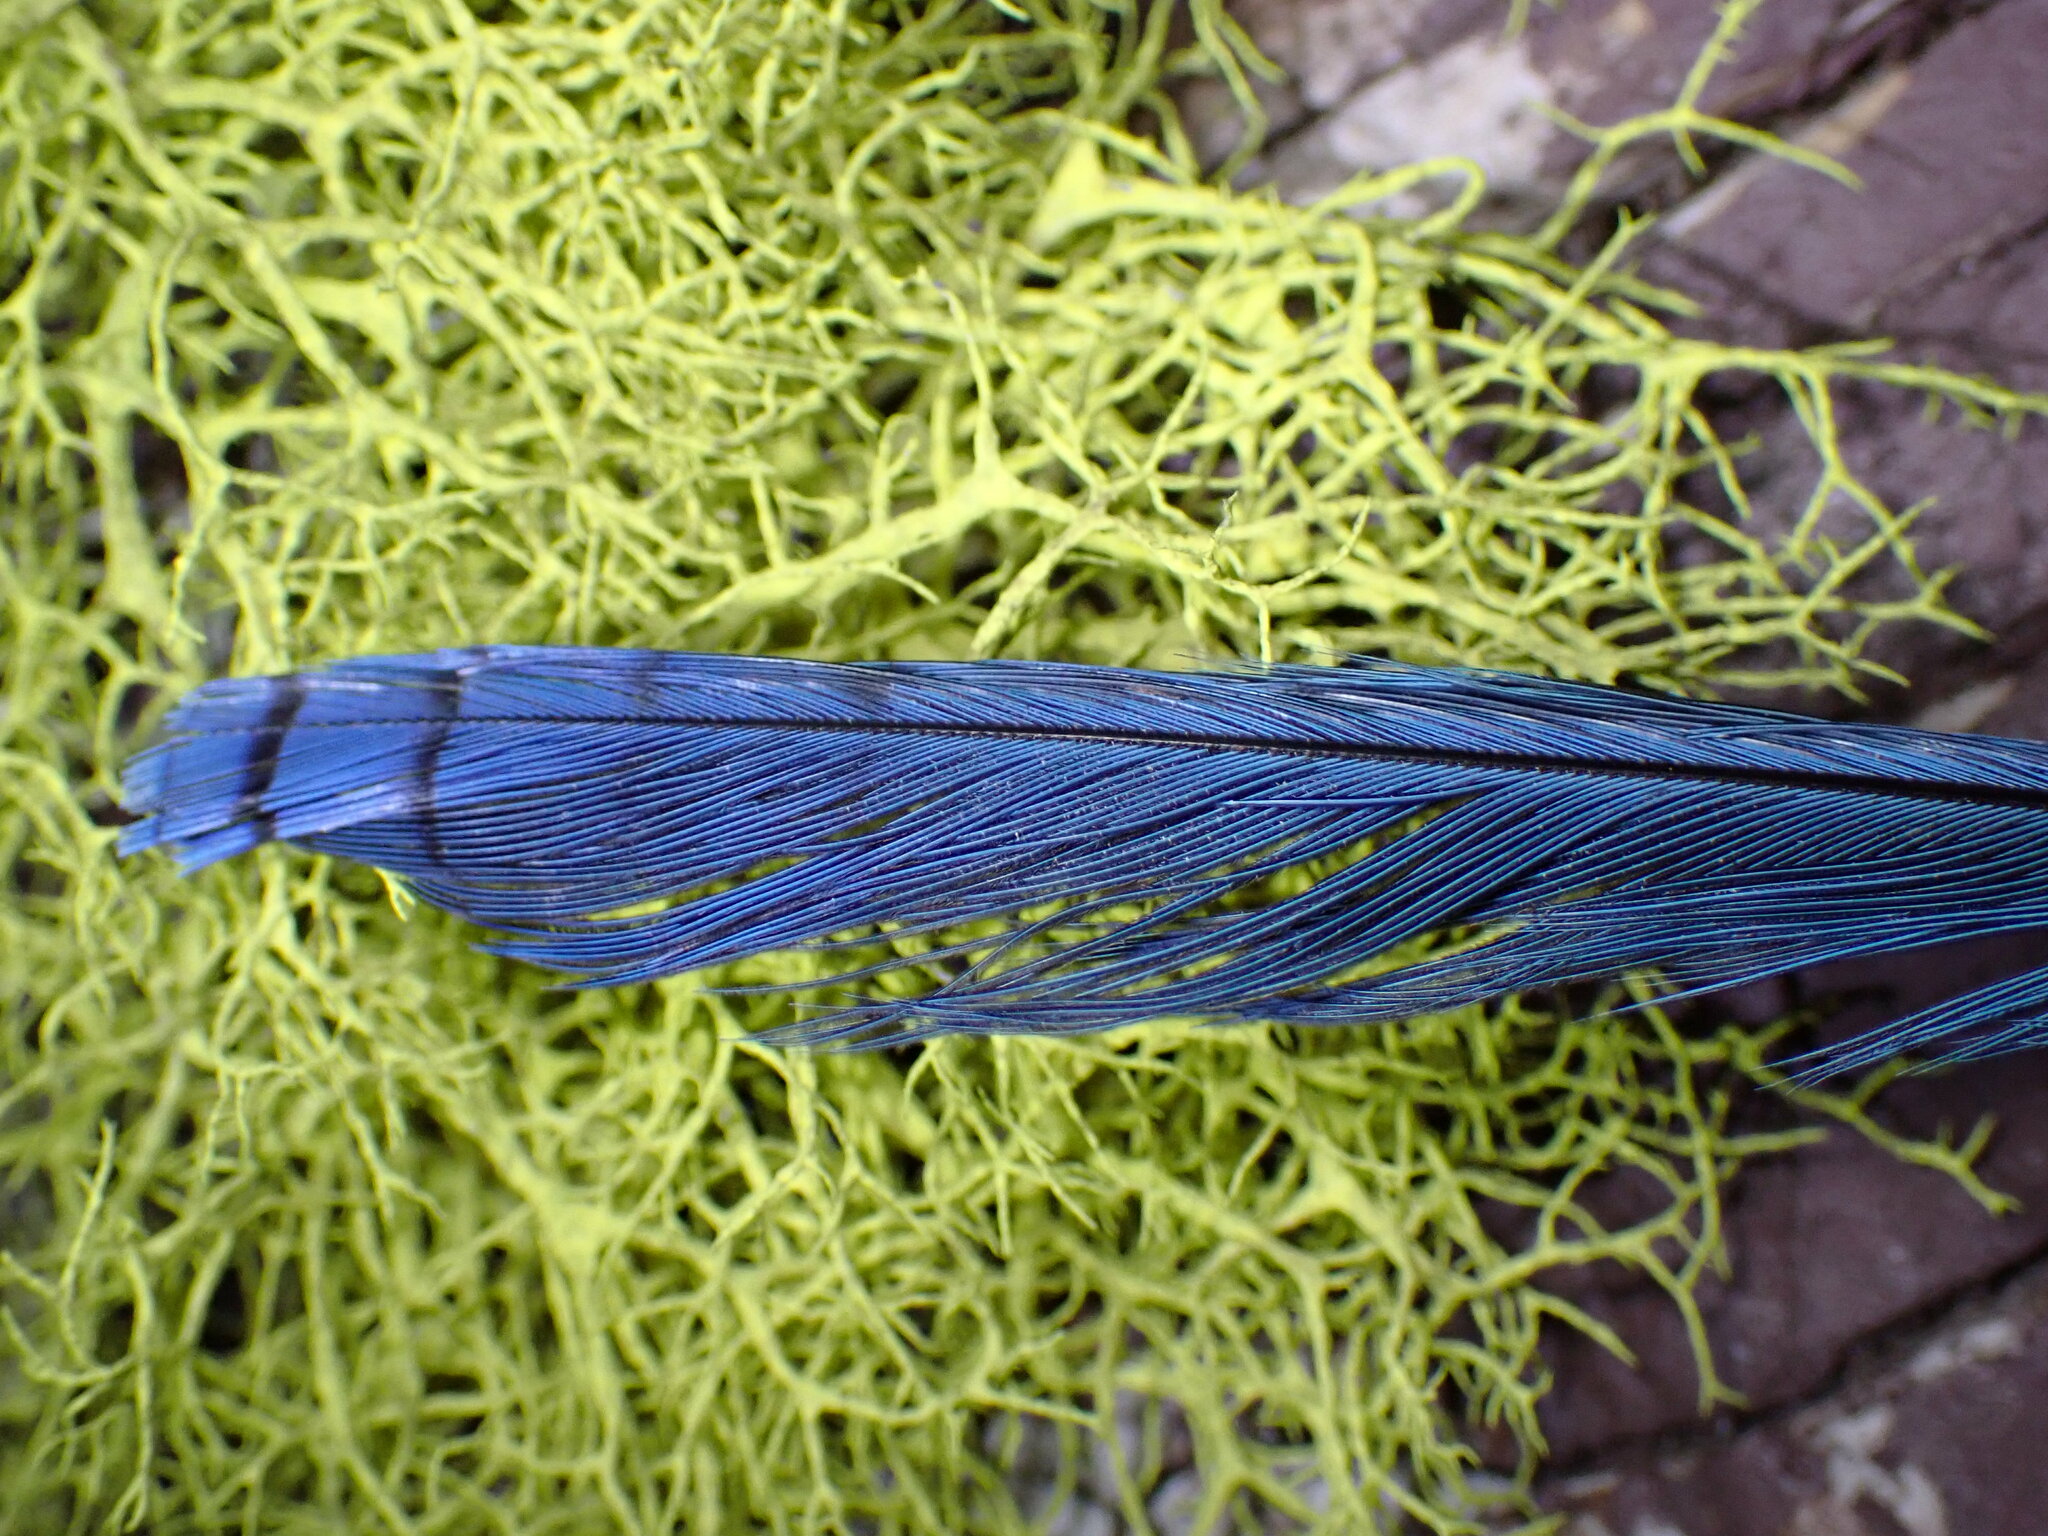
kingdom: Animalia
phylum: Chordata
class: Aves
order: Passeriformes
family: Corvidae
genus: Cyanocitta
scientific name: Cyanocitta stelleri
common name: Steller's jay
